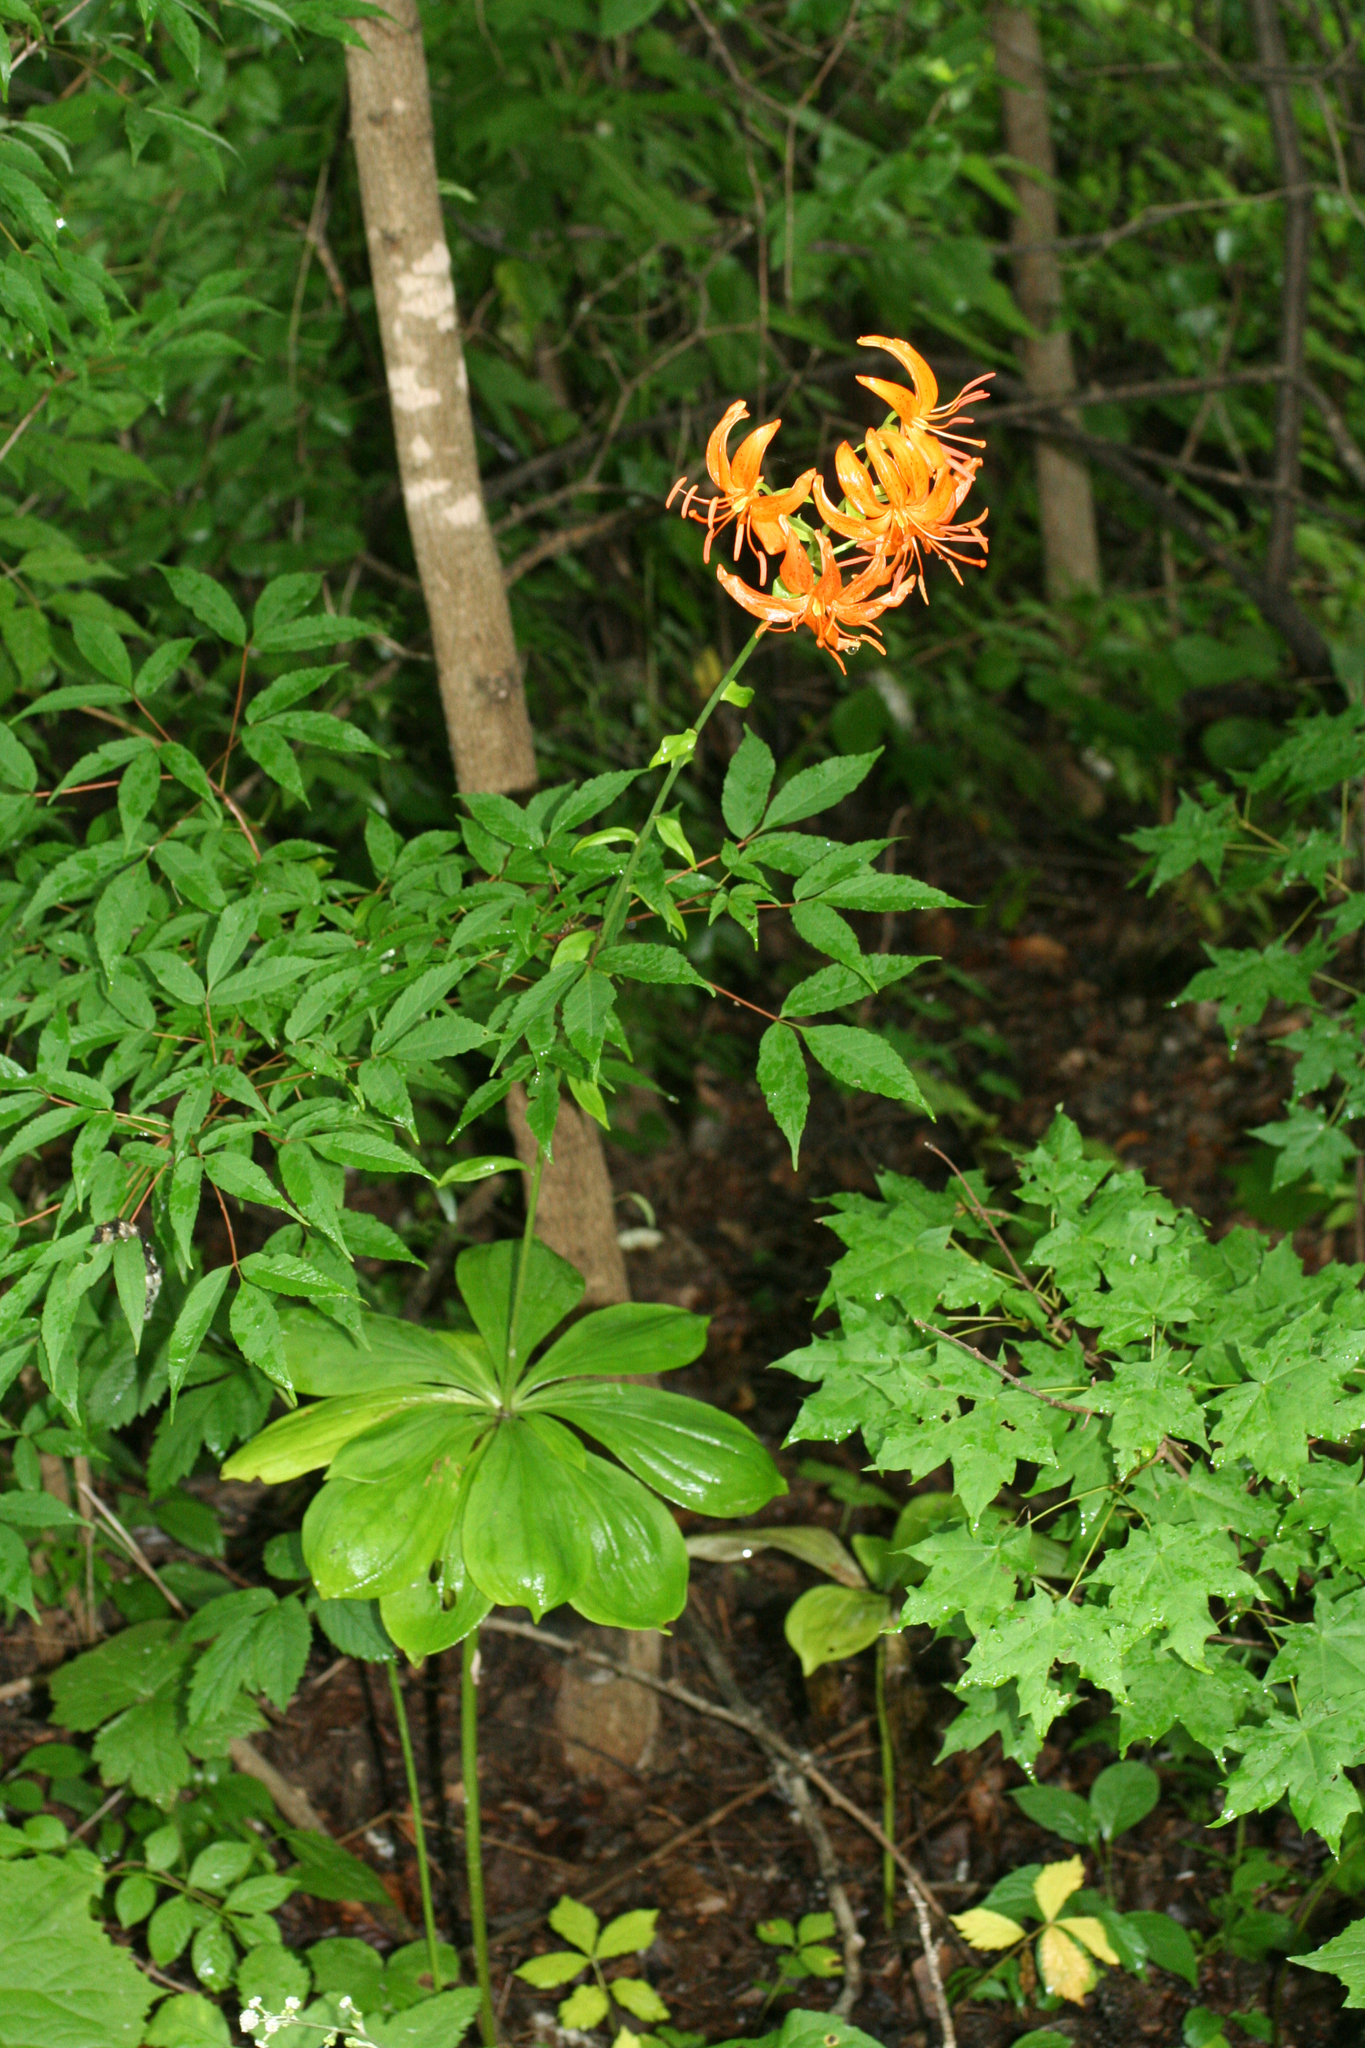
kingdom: Plantae
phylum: Tracheophyta
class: Liliopsida
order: Liliales
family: Liliaceae
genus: Lilium
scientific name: Lilium distichum
